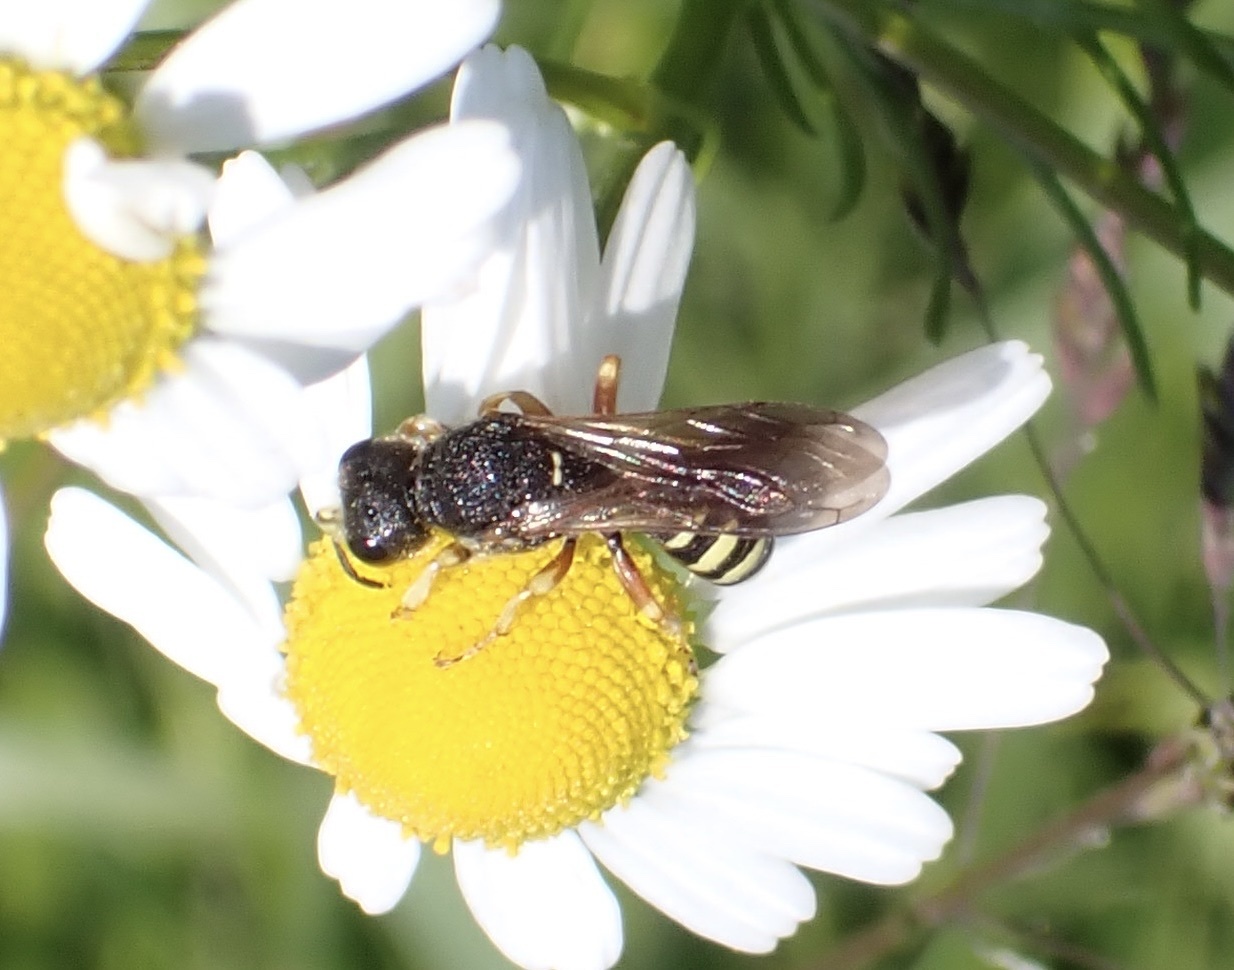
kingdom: Animalia
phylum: Arthropoda
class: Insecta
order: Hymenoptera
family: Crabronidae
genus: Lestica
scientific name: Lestica subterranea
